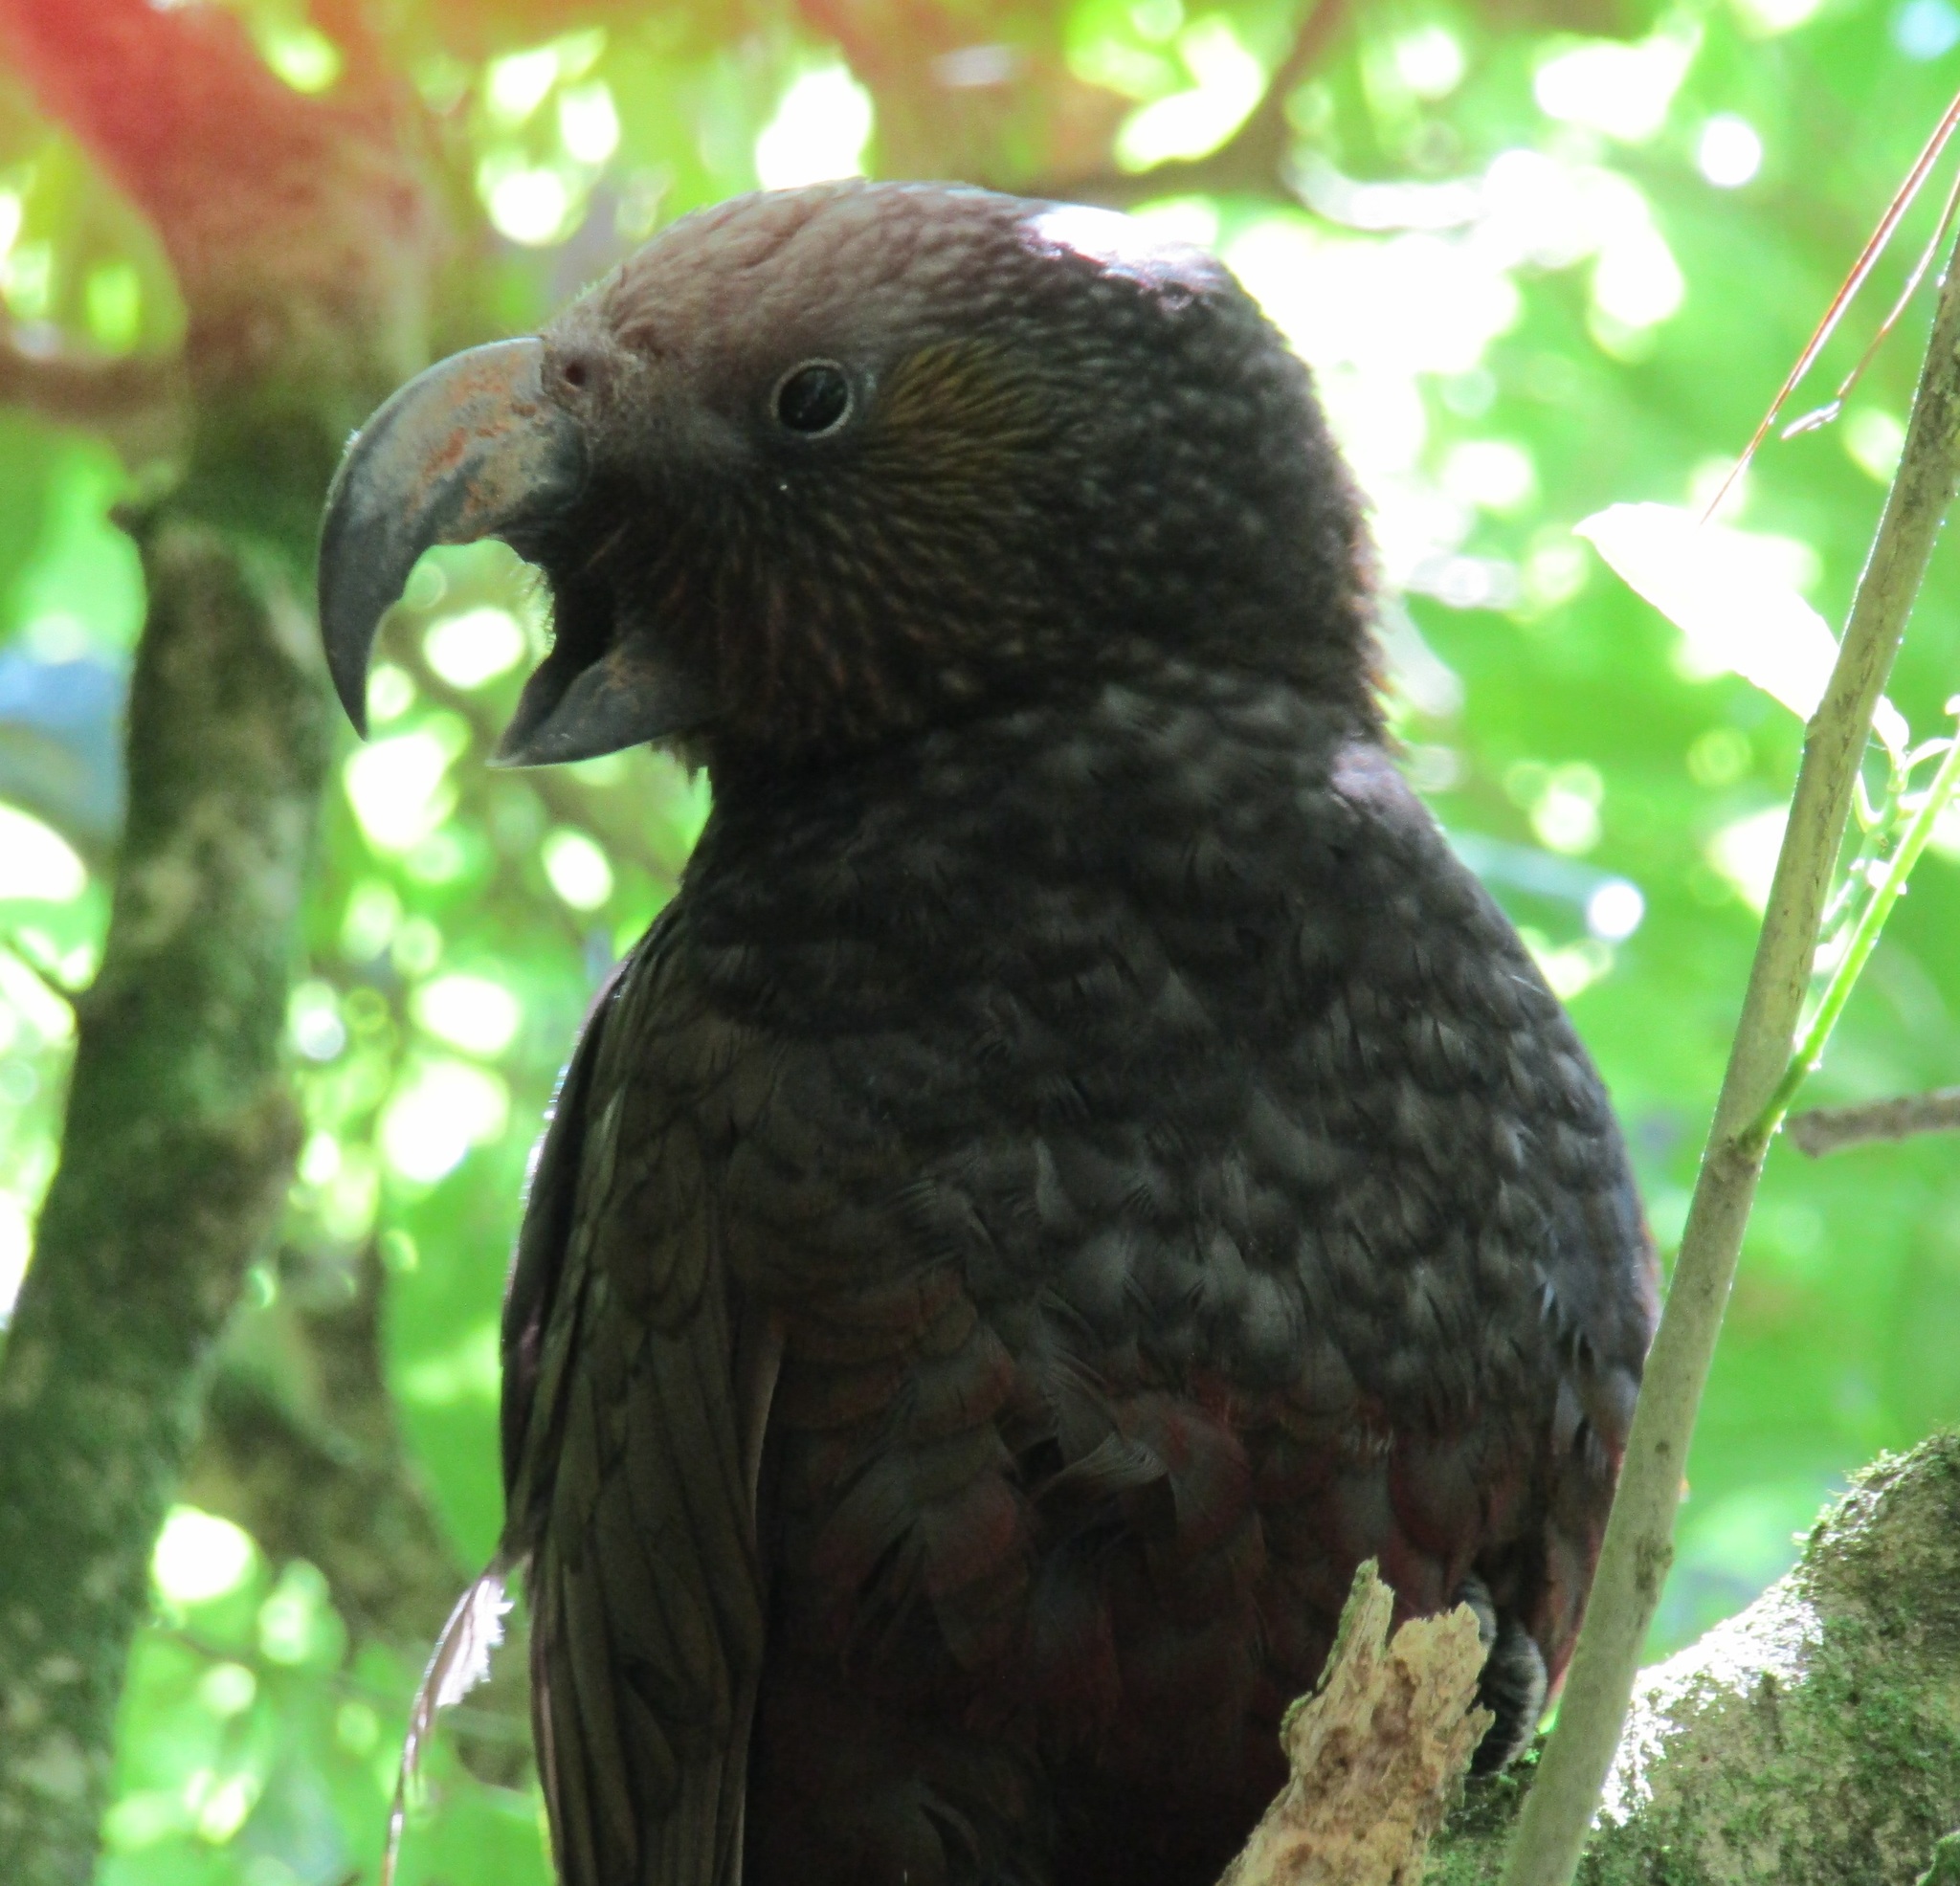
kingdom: Animalia
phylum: Chordata
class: Aves
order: Psittaciformes
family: Psittacidae
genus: Nestor
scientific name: Nestor meridionalis
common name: New zealand kaka
